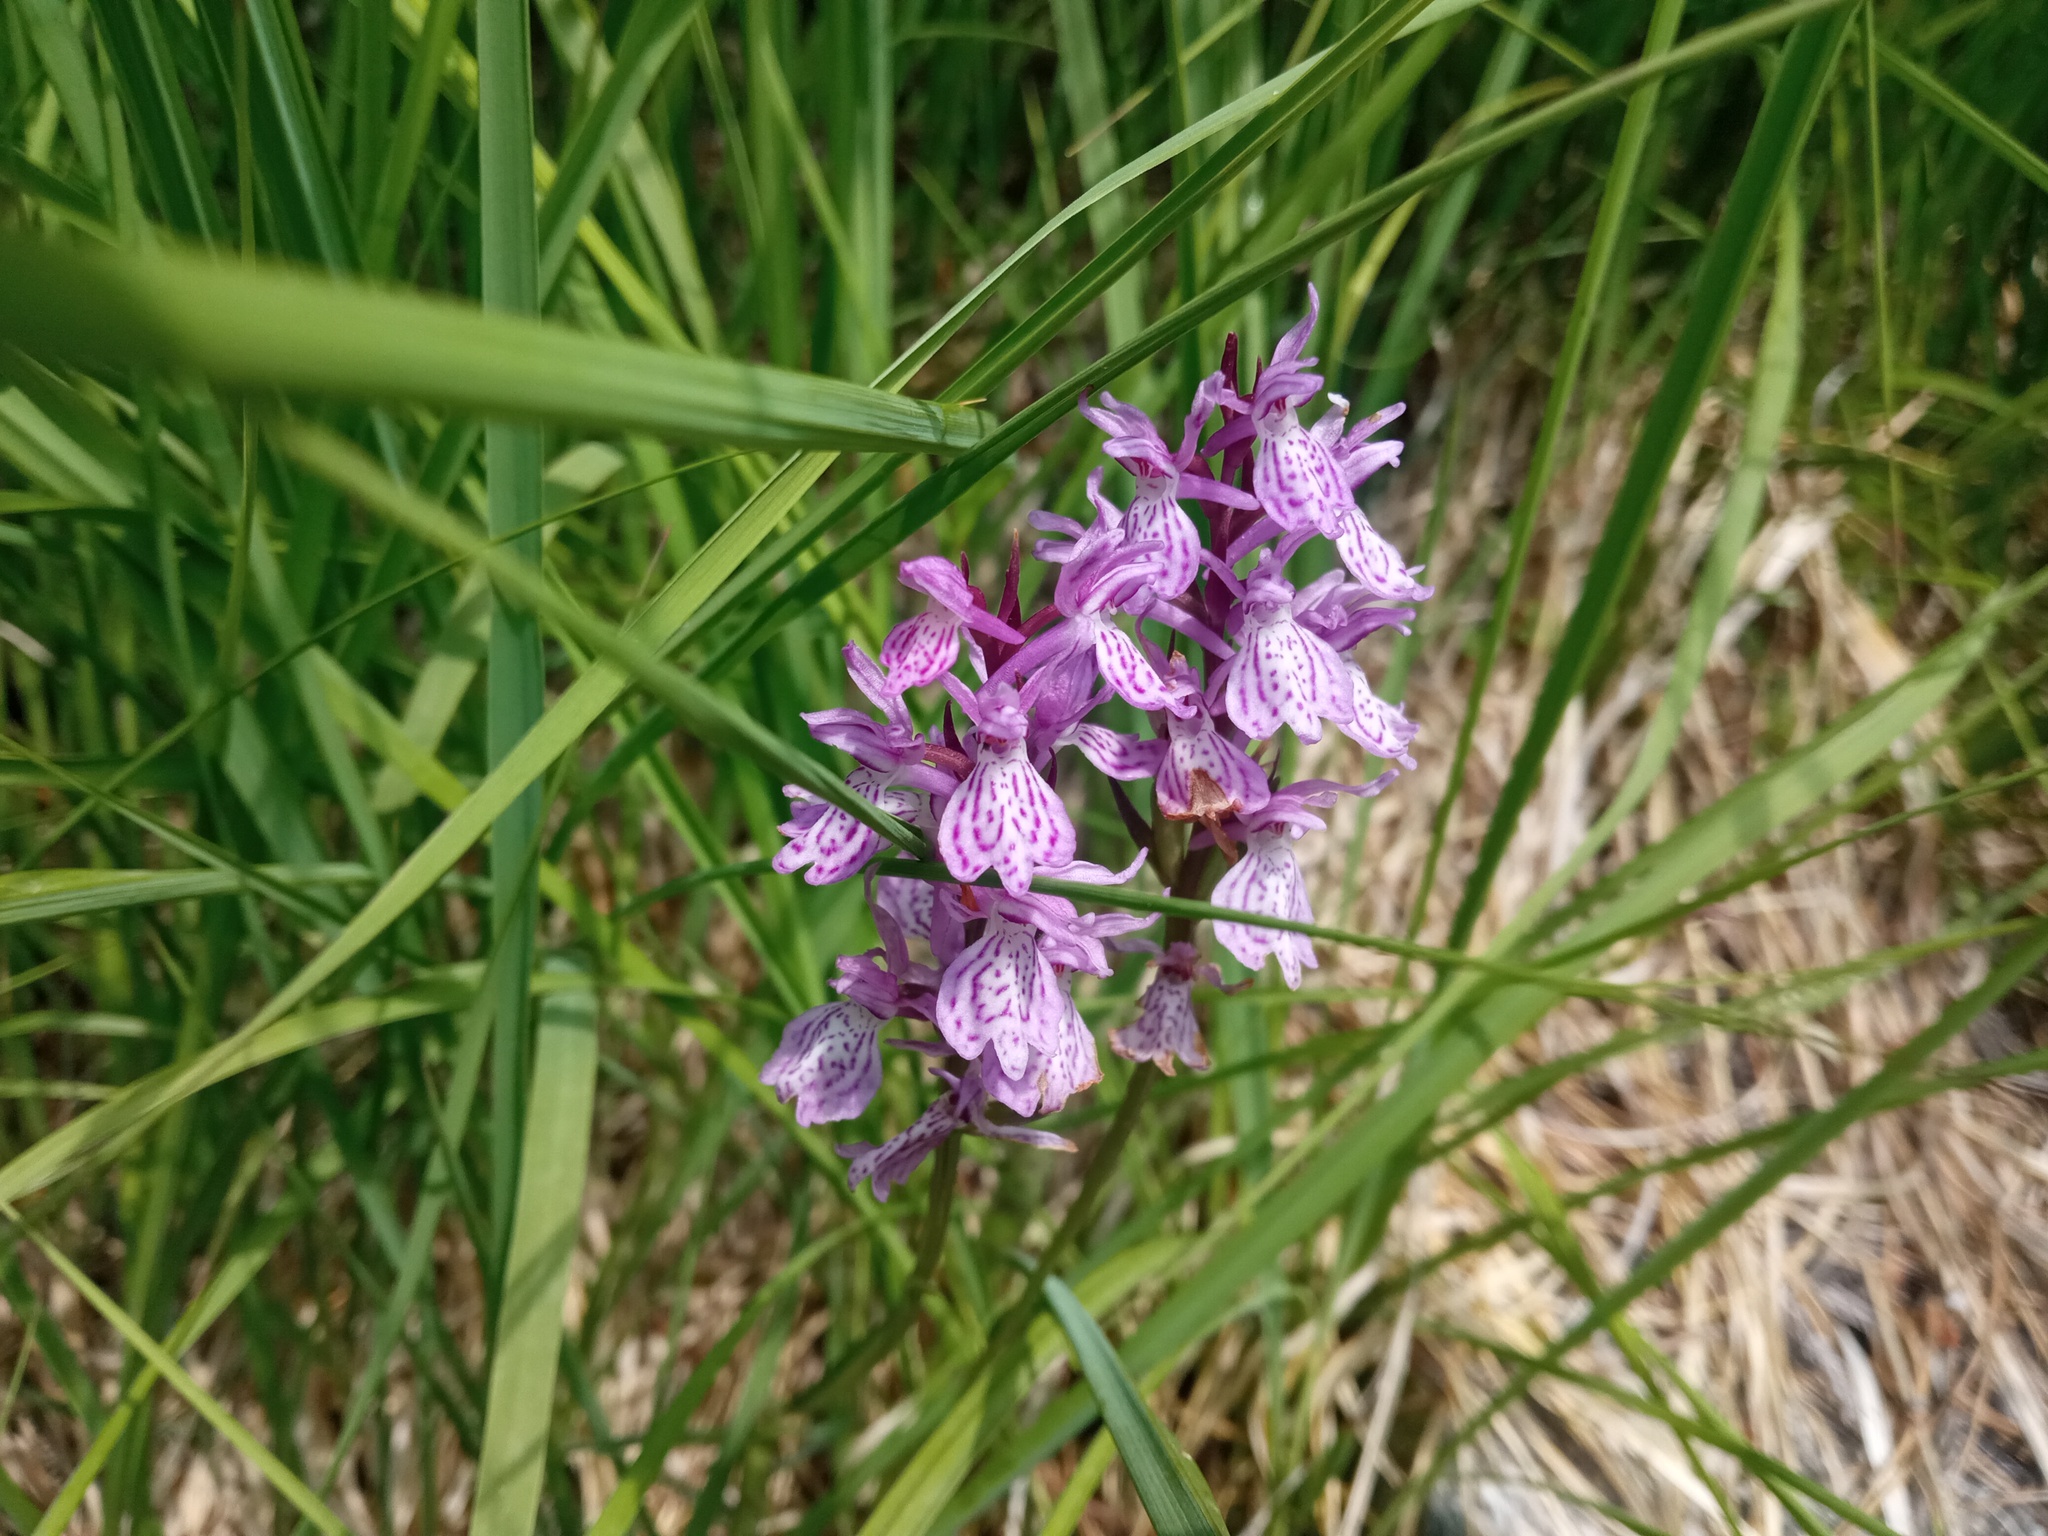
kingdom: Plantae
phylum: Tracheophyta
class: Liliopsida
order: Asparagales
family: Orchidaceae
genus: Dactylorhiza
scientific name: Dactylorhiza maculata
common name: Heath spotted-orchid
